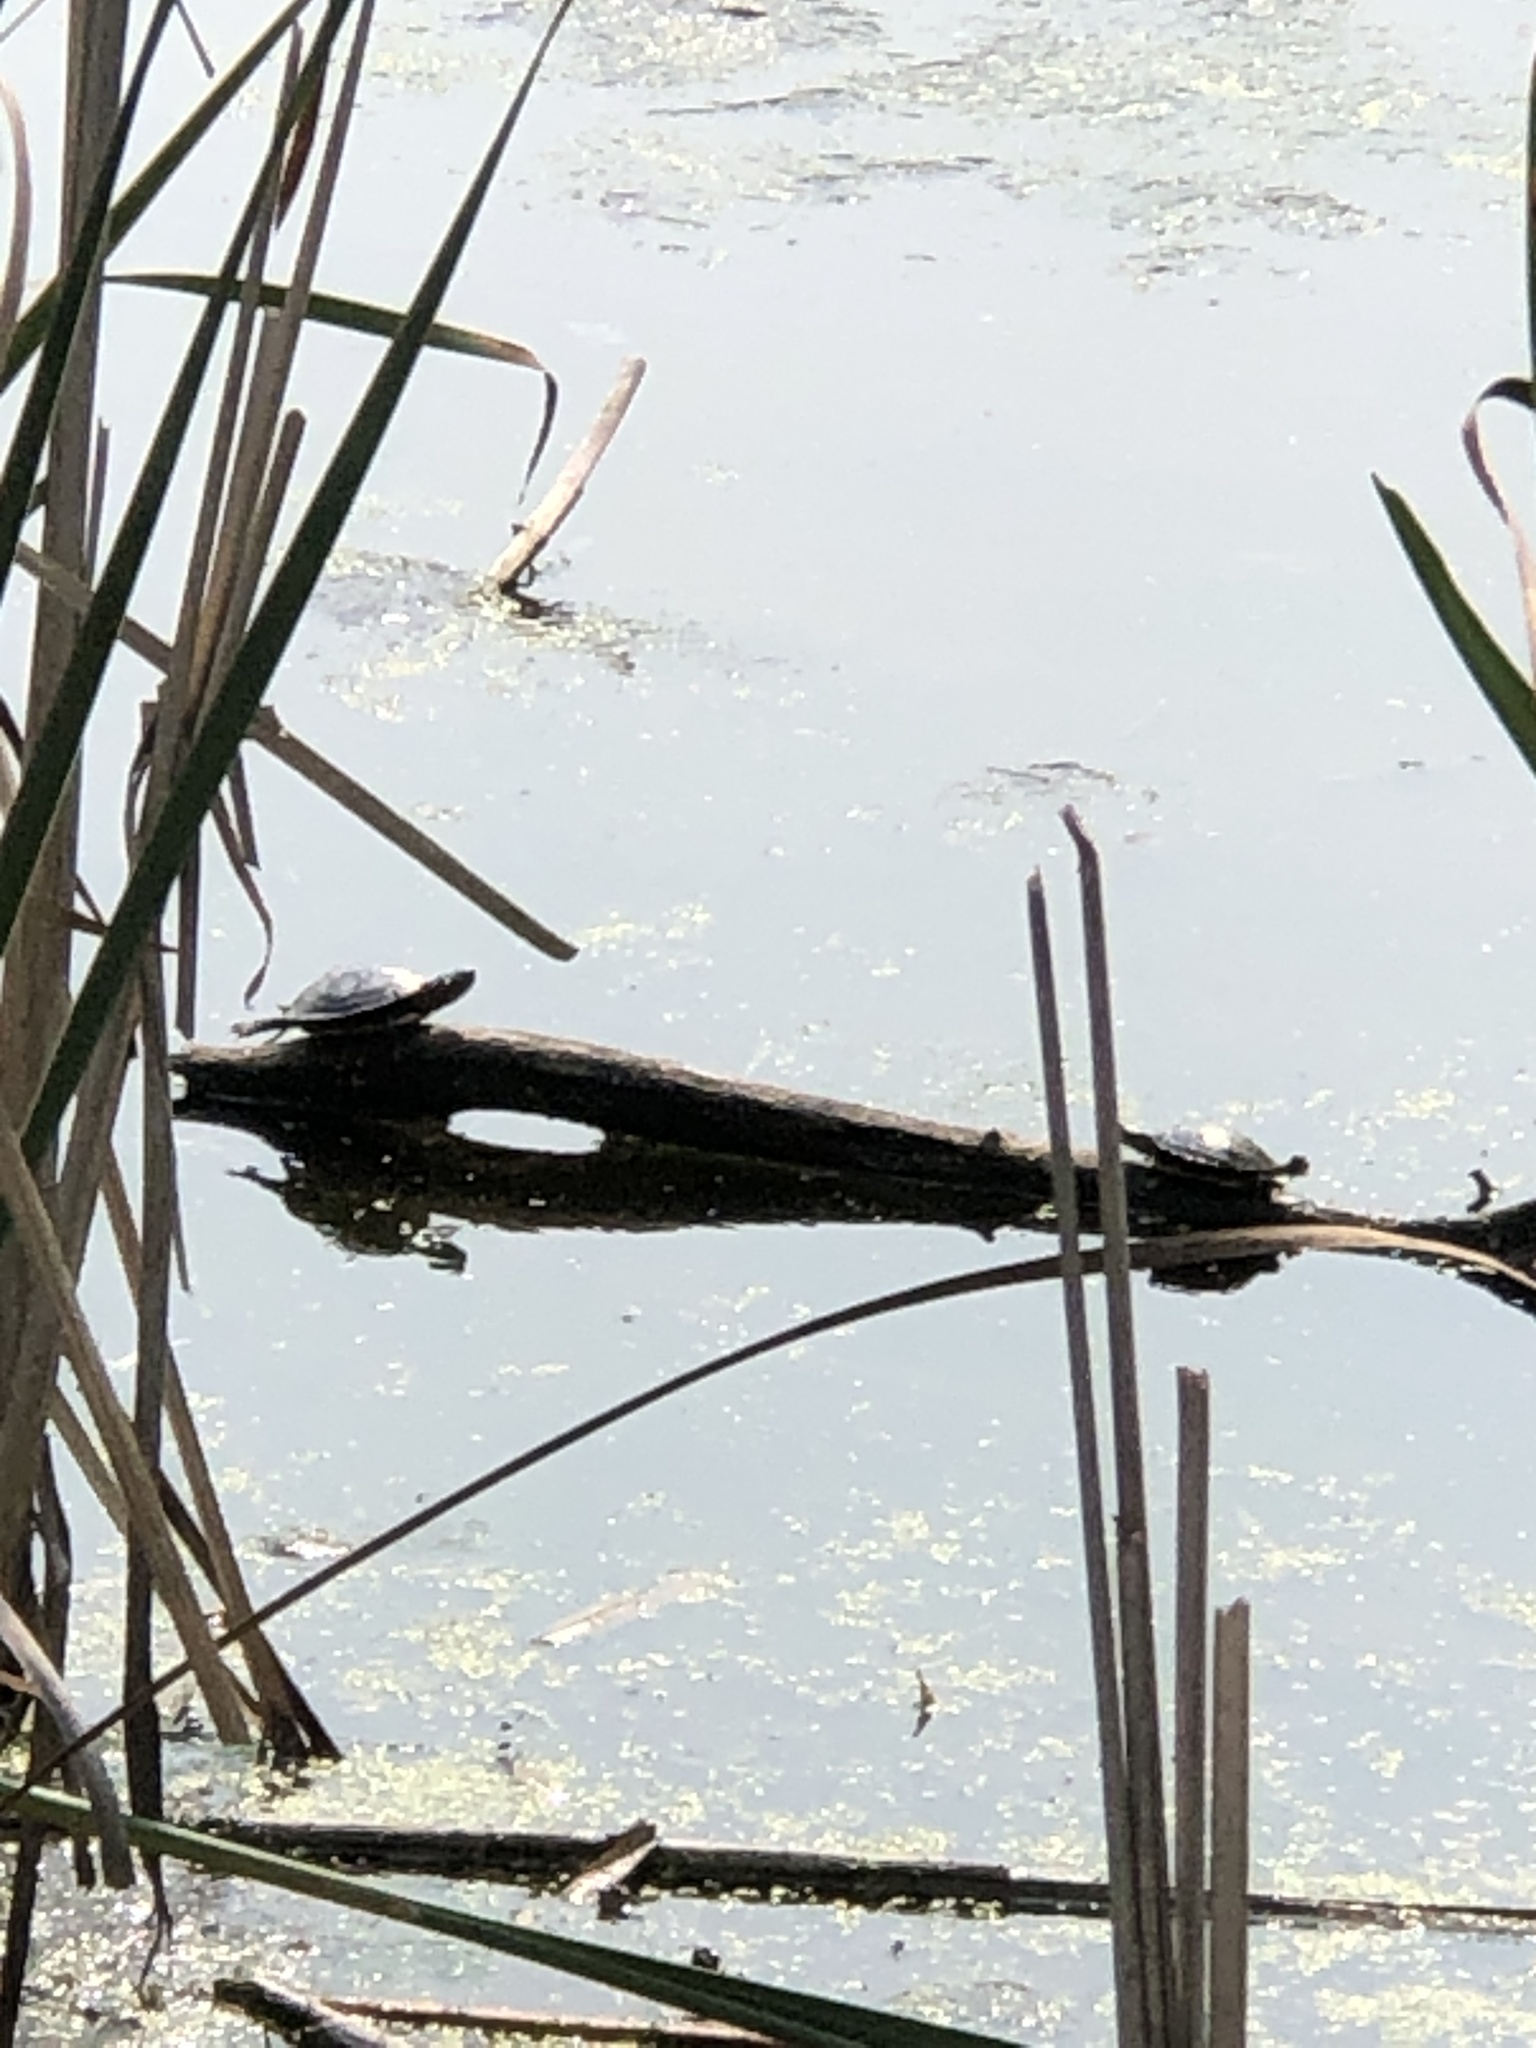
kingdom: Animalia
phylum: Chordata
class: Testudines
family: Emydidae
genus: Chrysemys
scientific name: Chrysemys picta
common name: Painted turtle
